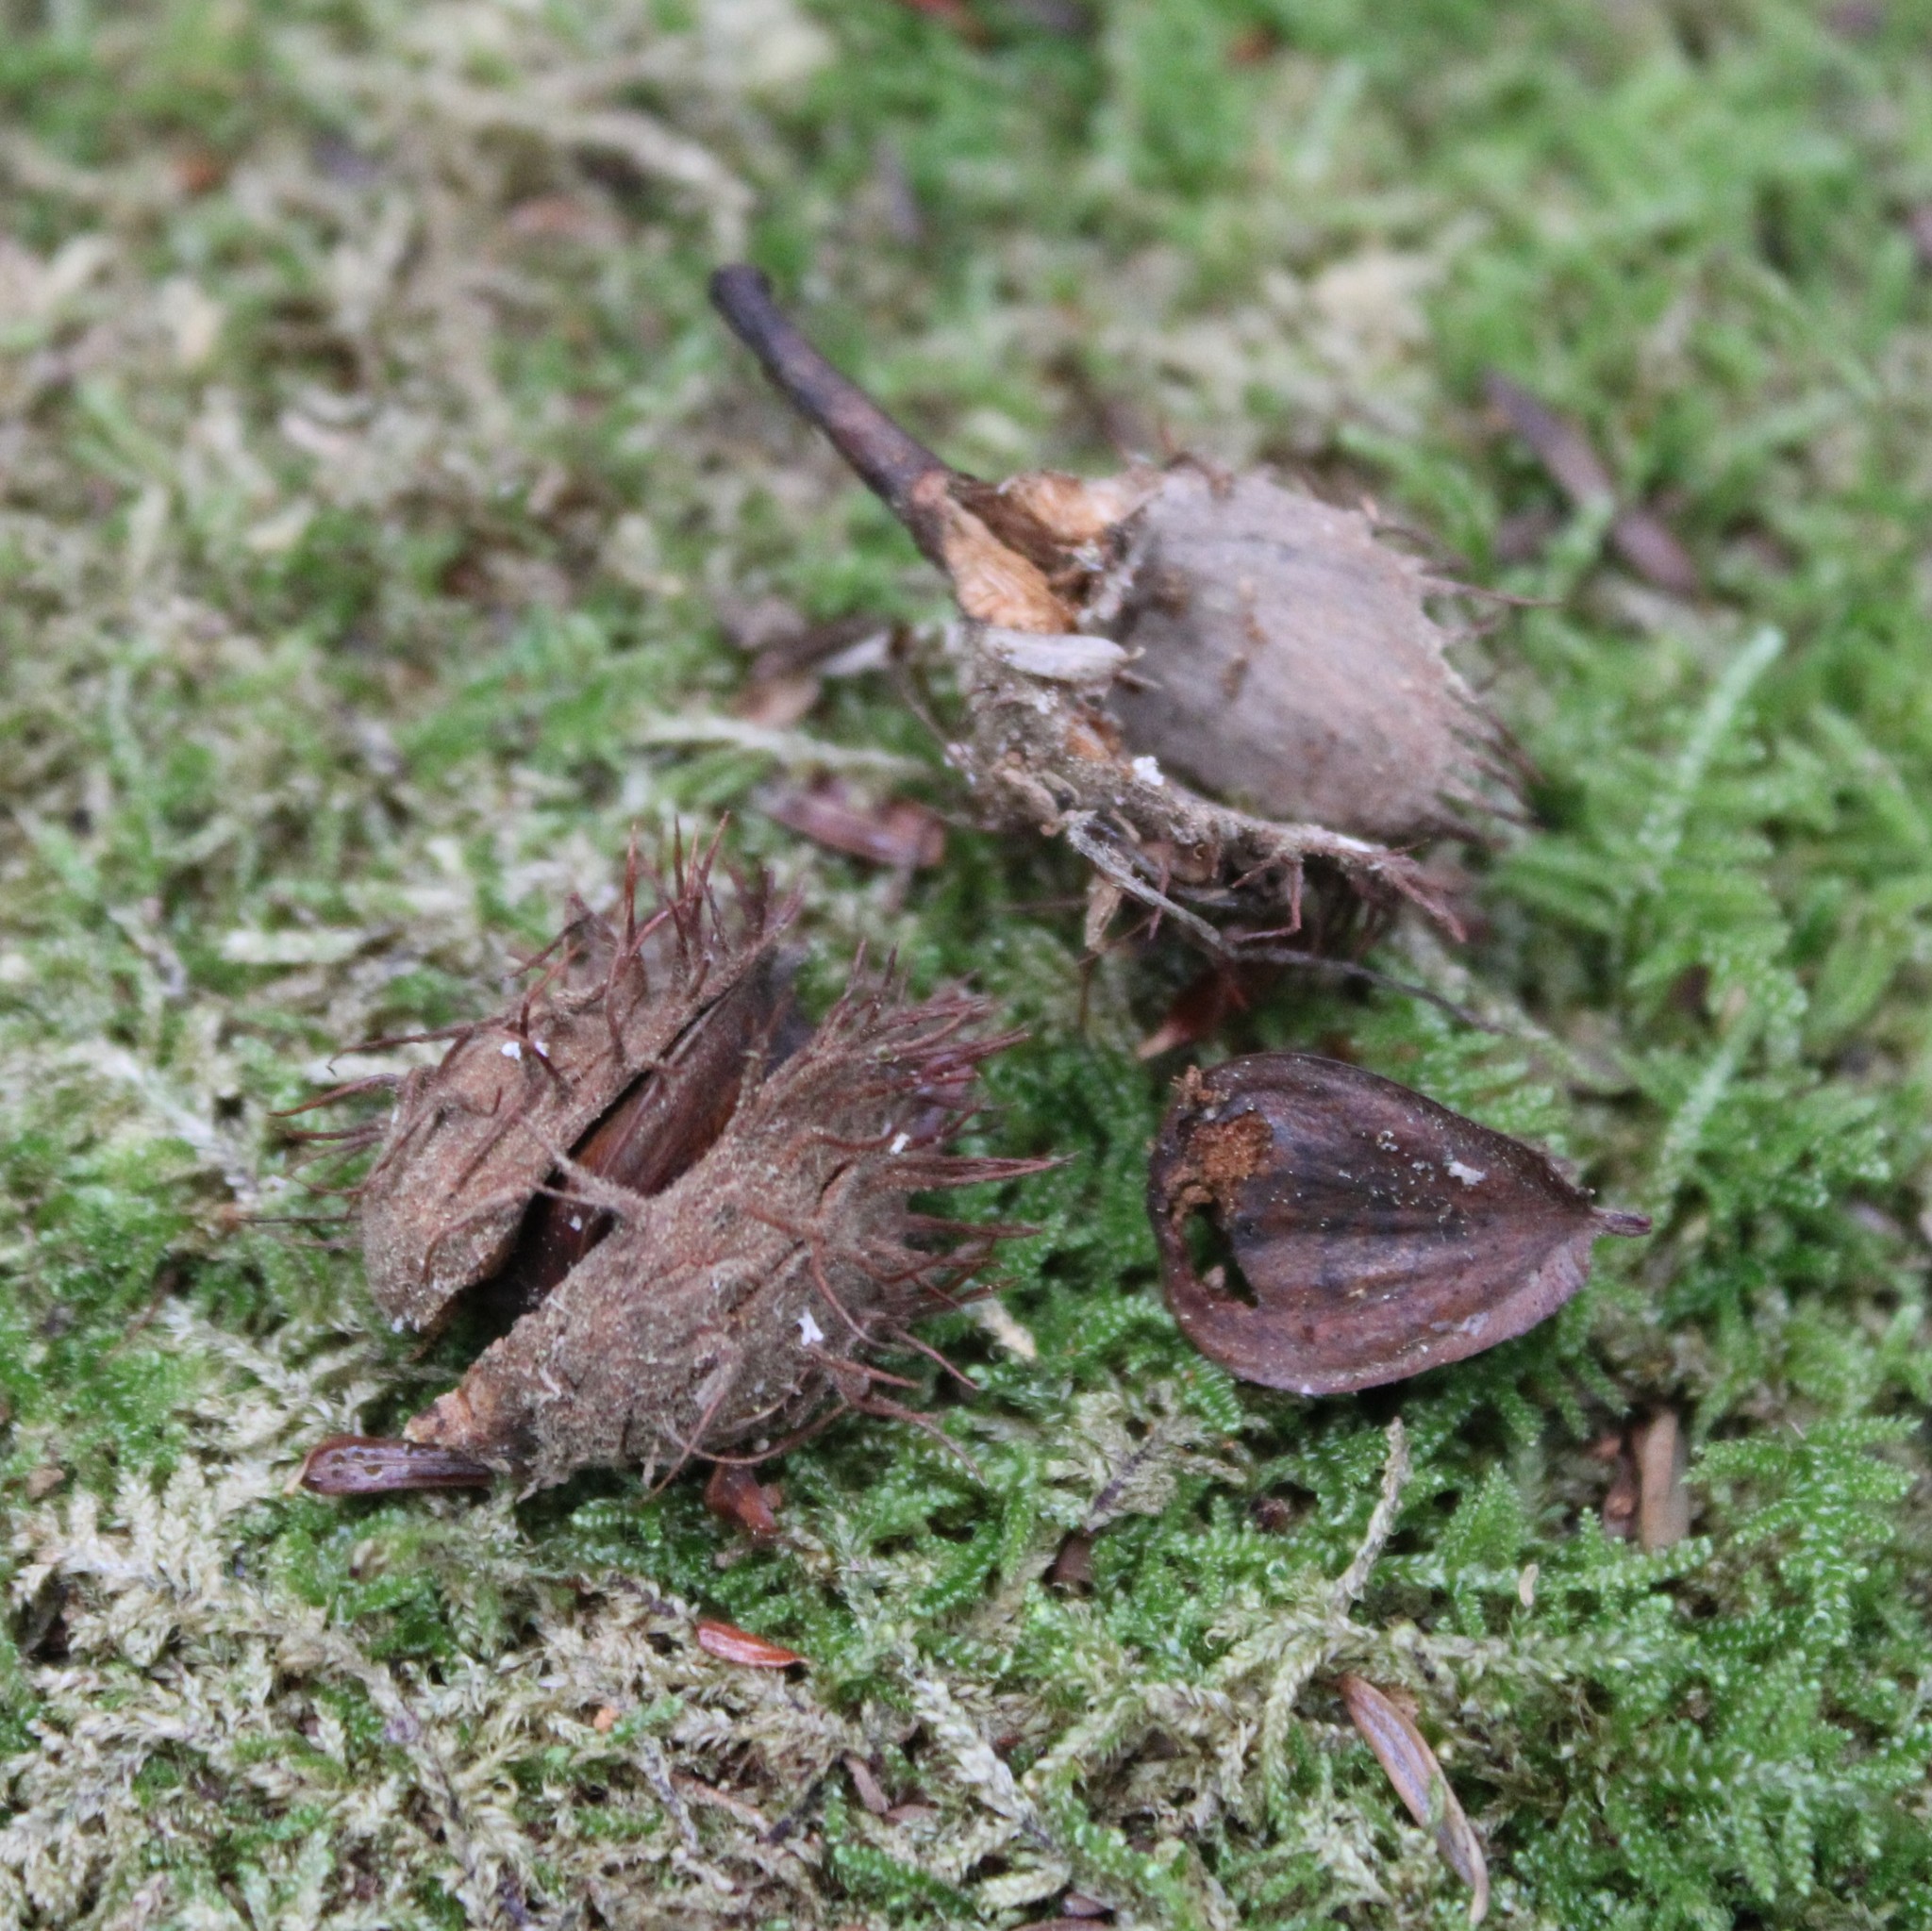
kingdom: Plantae
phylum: Tracheophyta
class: Magnoliopsida
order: Fagales
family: Fagaceae
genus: Fagus
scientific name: Fagus grandifolia
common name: American beech
